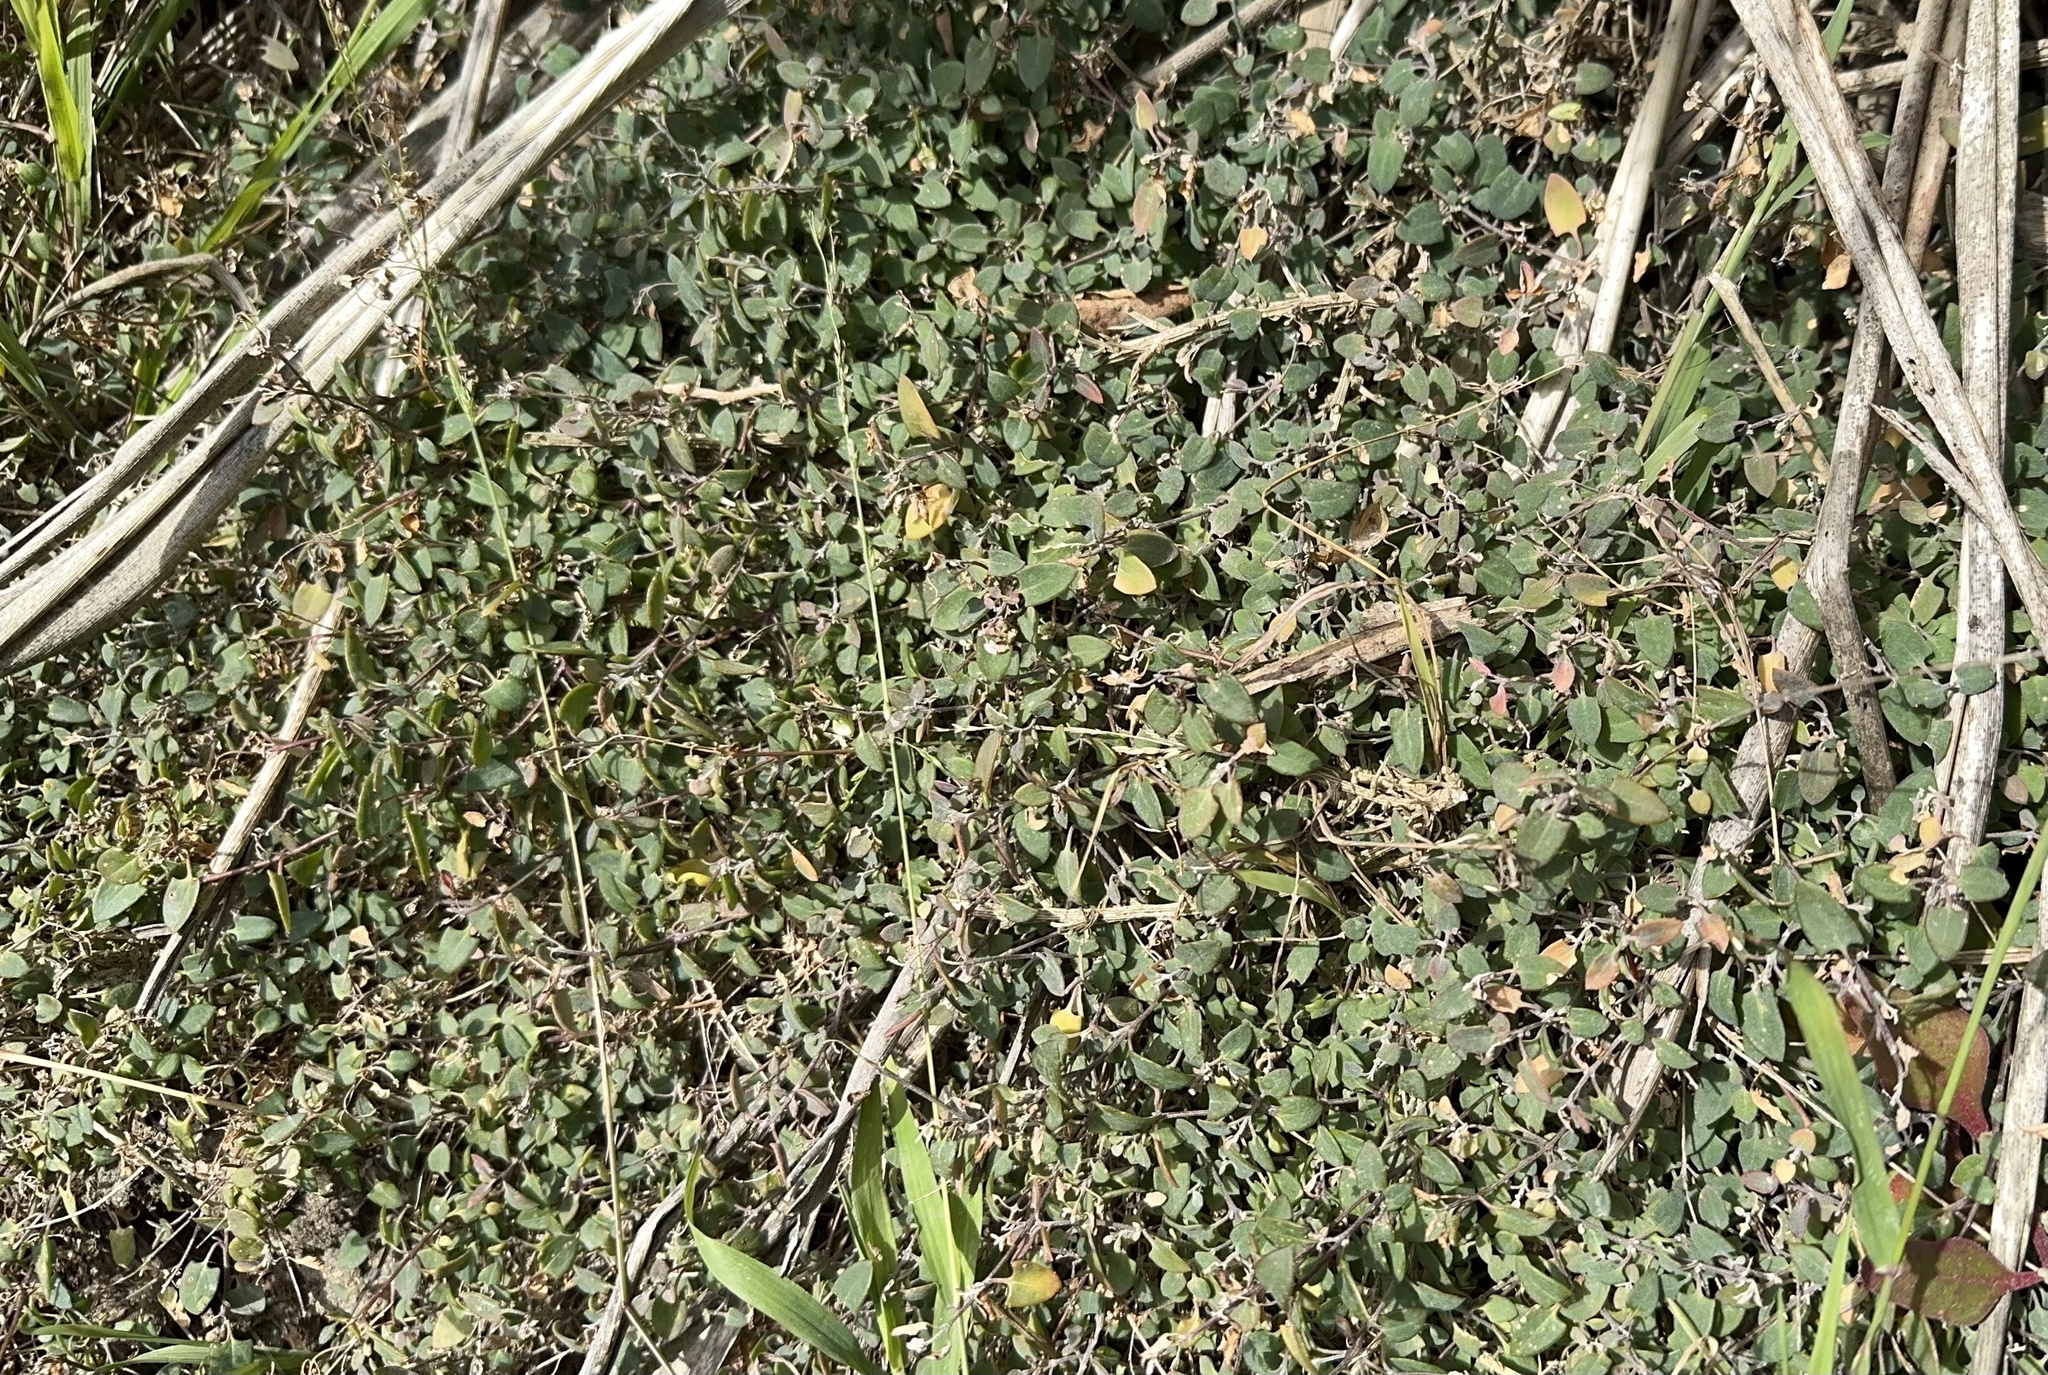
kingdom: Plantae
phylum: Tracheophyta
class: Magnoliopsida
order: Caryophyllales
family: Amaranthaceae
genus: Chenopodium
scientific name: Chenopodium triandrum
